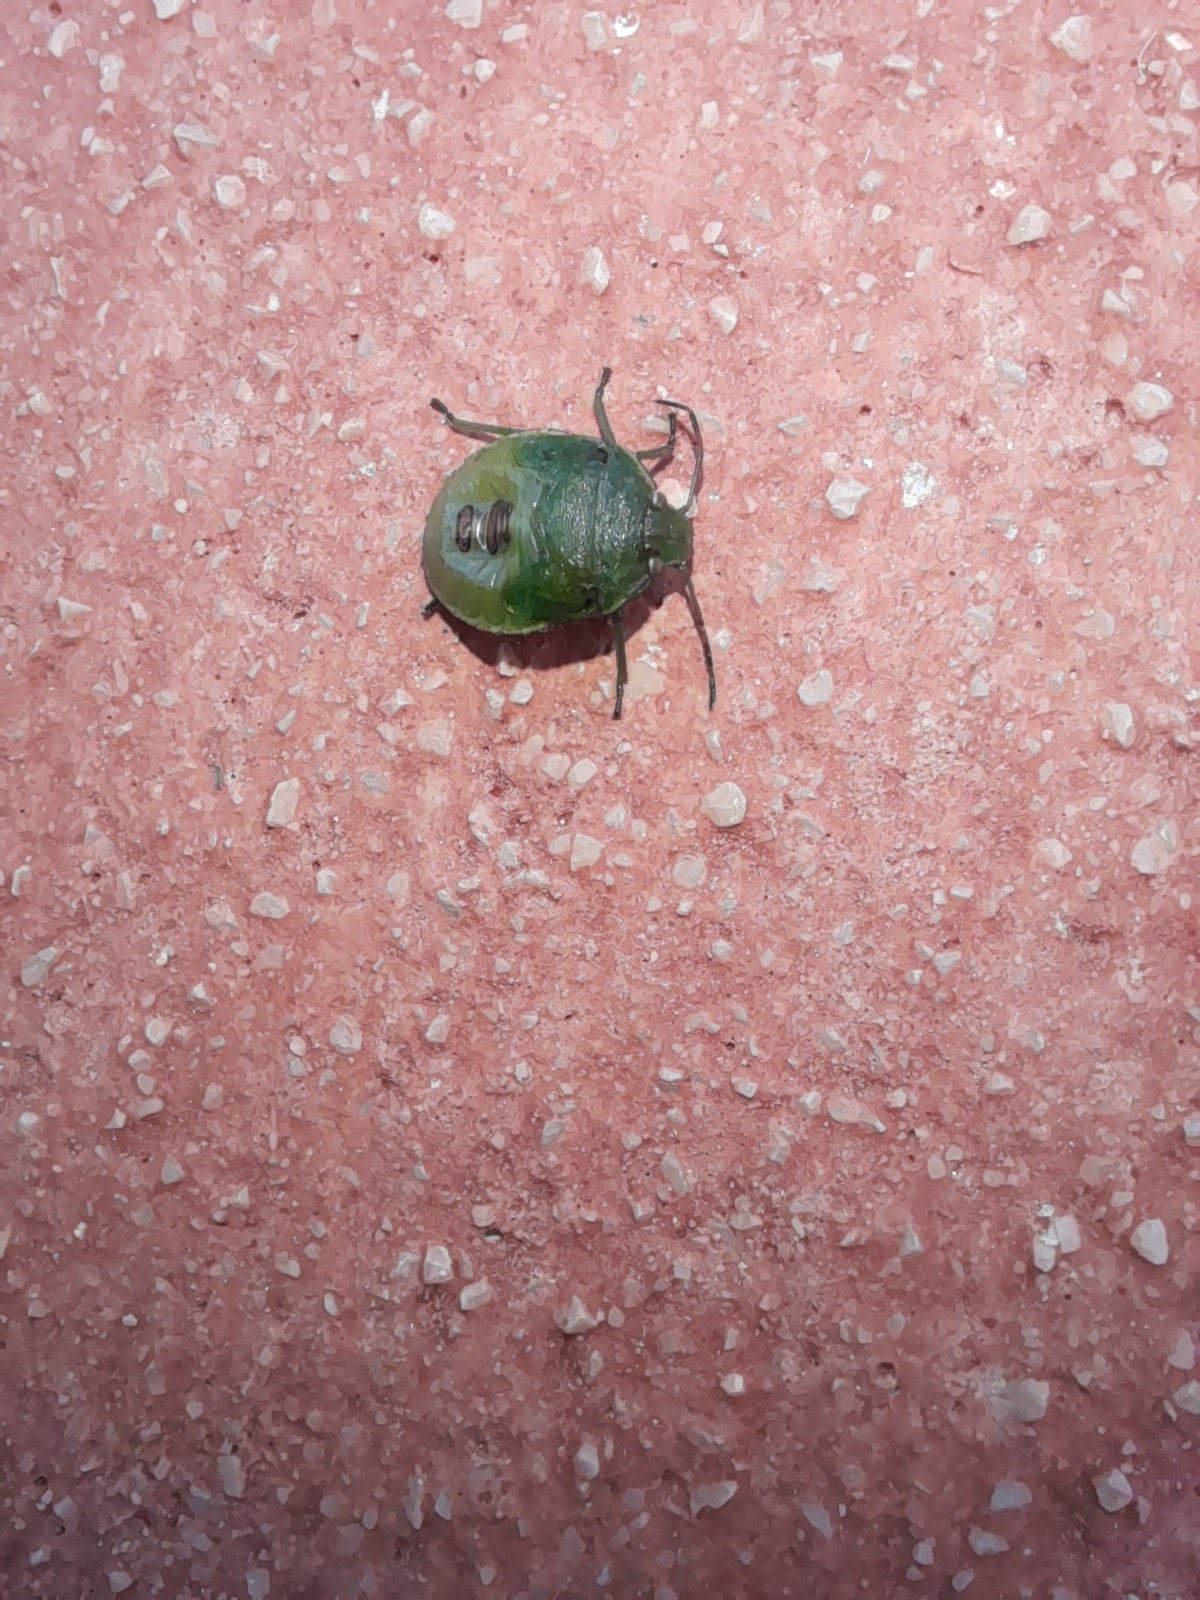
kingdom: Animalia
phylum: Arthropoda
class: Insecta
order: Hemiptera
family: Pentatomidae
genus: Acrosternum
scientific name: Acrosternum heegeri
